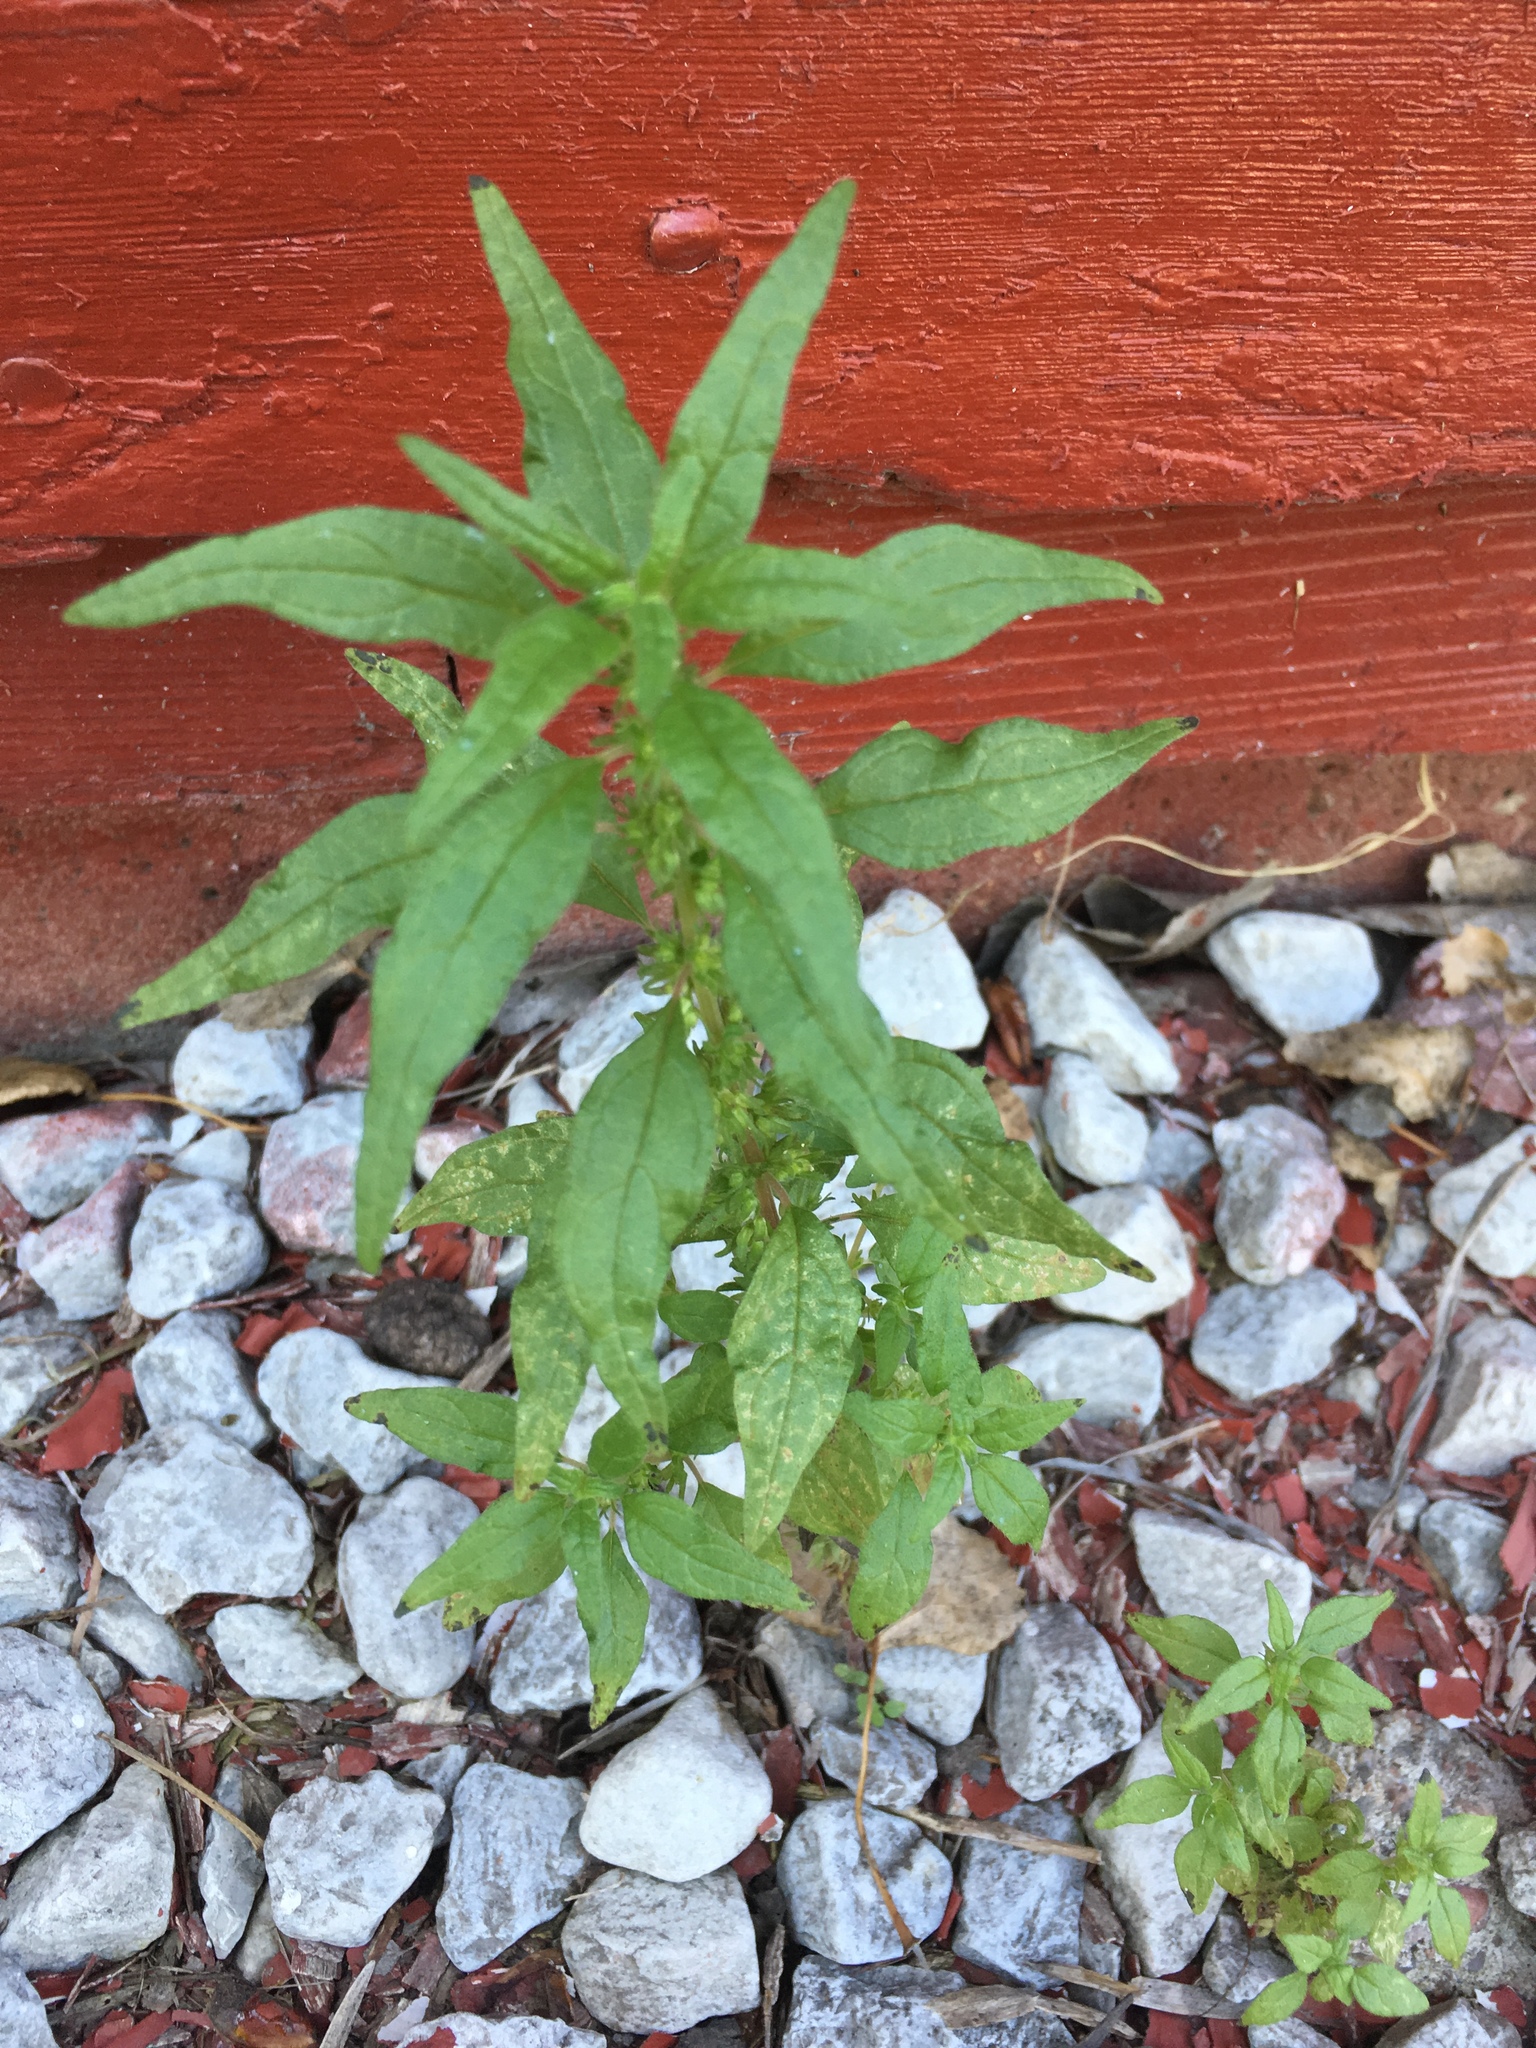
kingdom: Plantae
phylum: Tracheophyta
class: Magnoliopsida
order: Rosales
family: Urticaceae
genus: Parietaria
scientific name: Parietaria pensylvanica
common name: Pennsylvania pellitory
